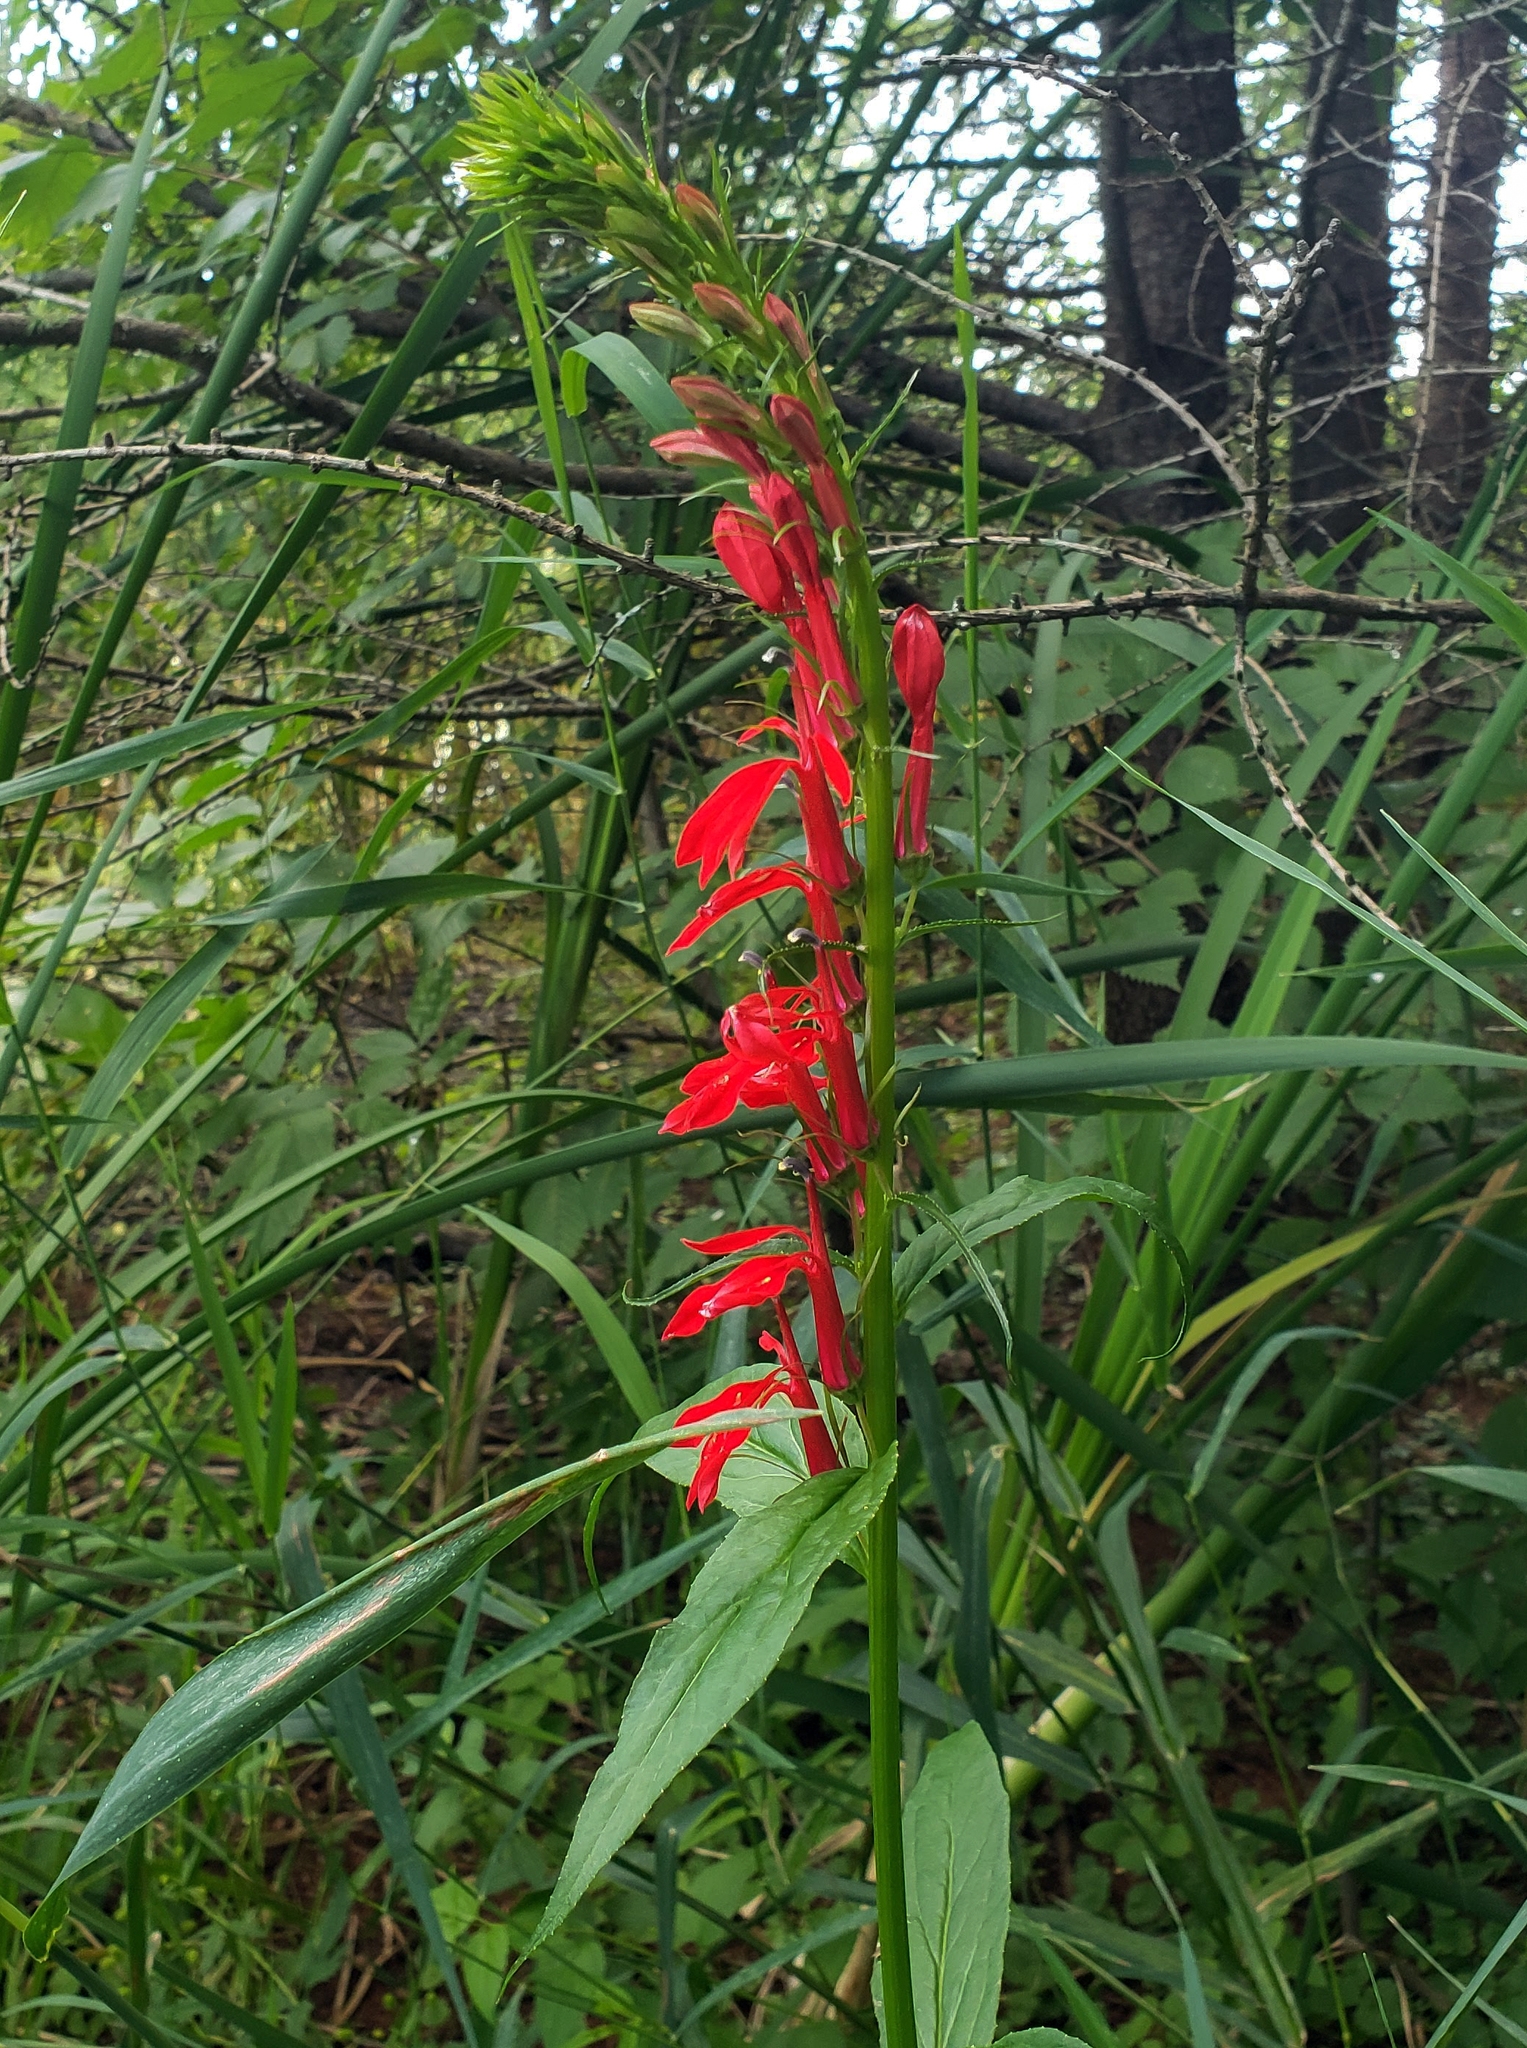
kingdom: Plantae
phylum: Tracheophyta
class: Magnoliopsida
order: Asterales
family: Campanulaceae
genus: Lobelia
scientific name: Lobelia cardinalis
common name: Cardinal flower
